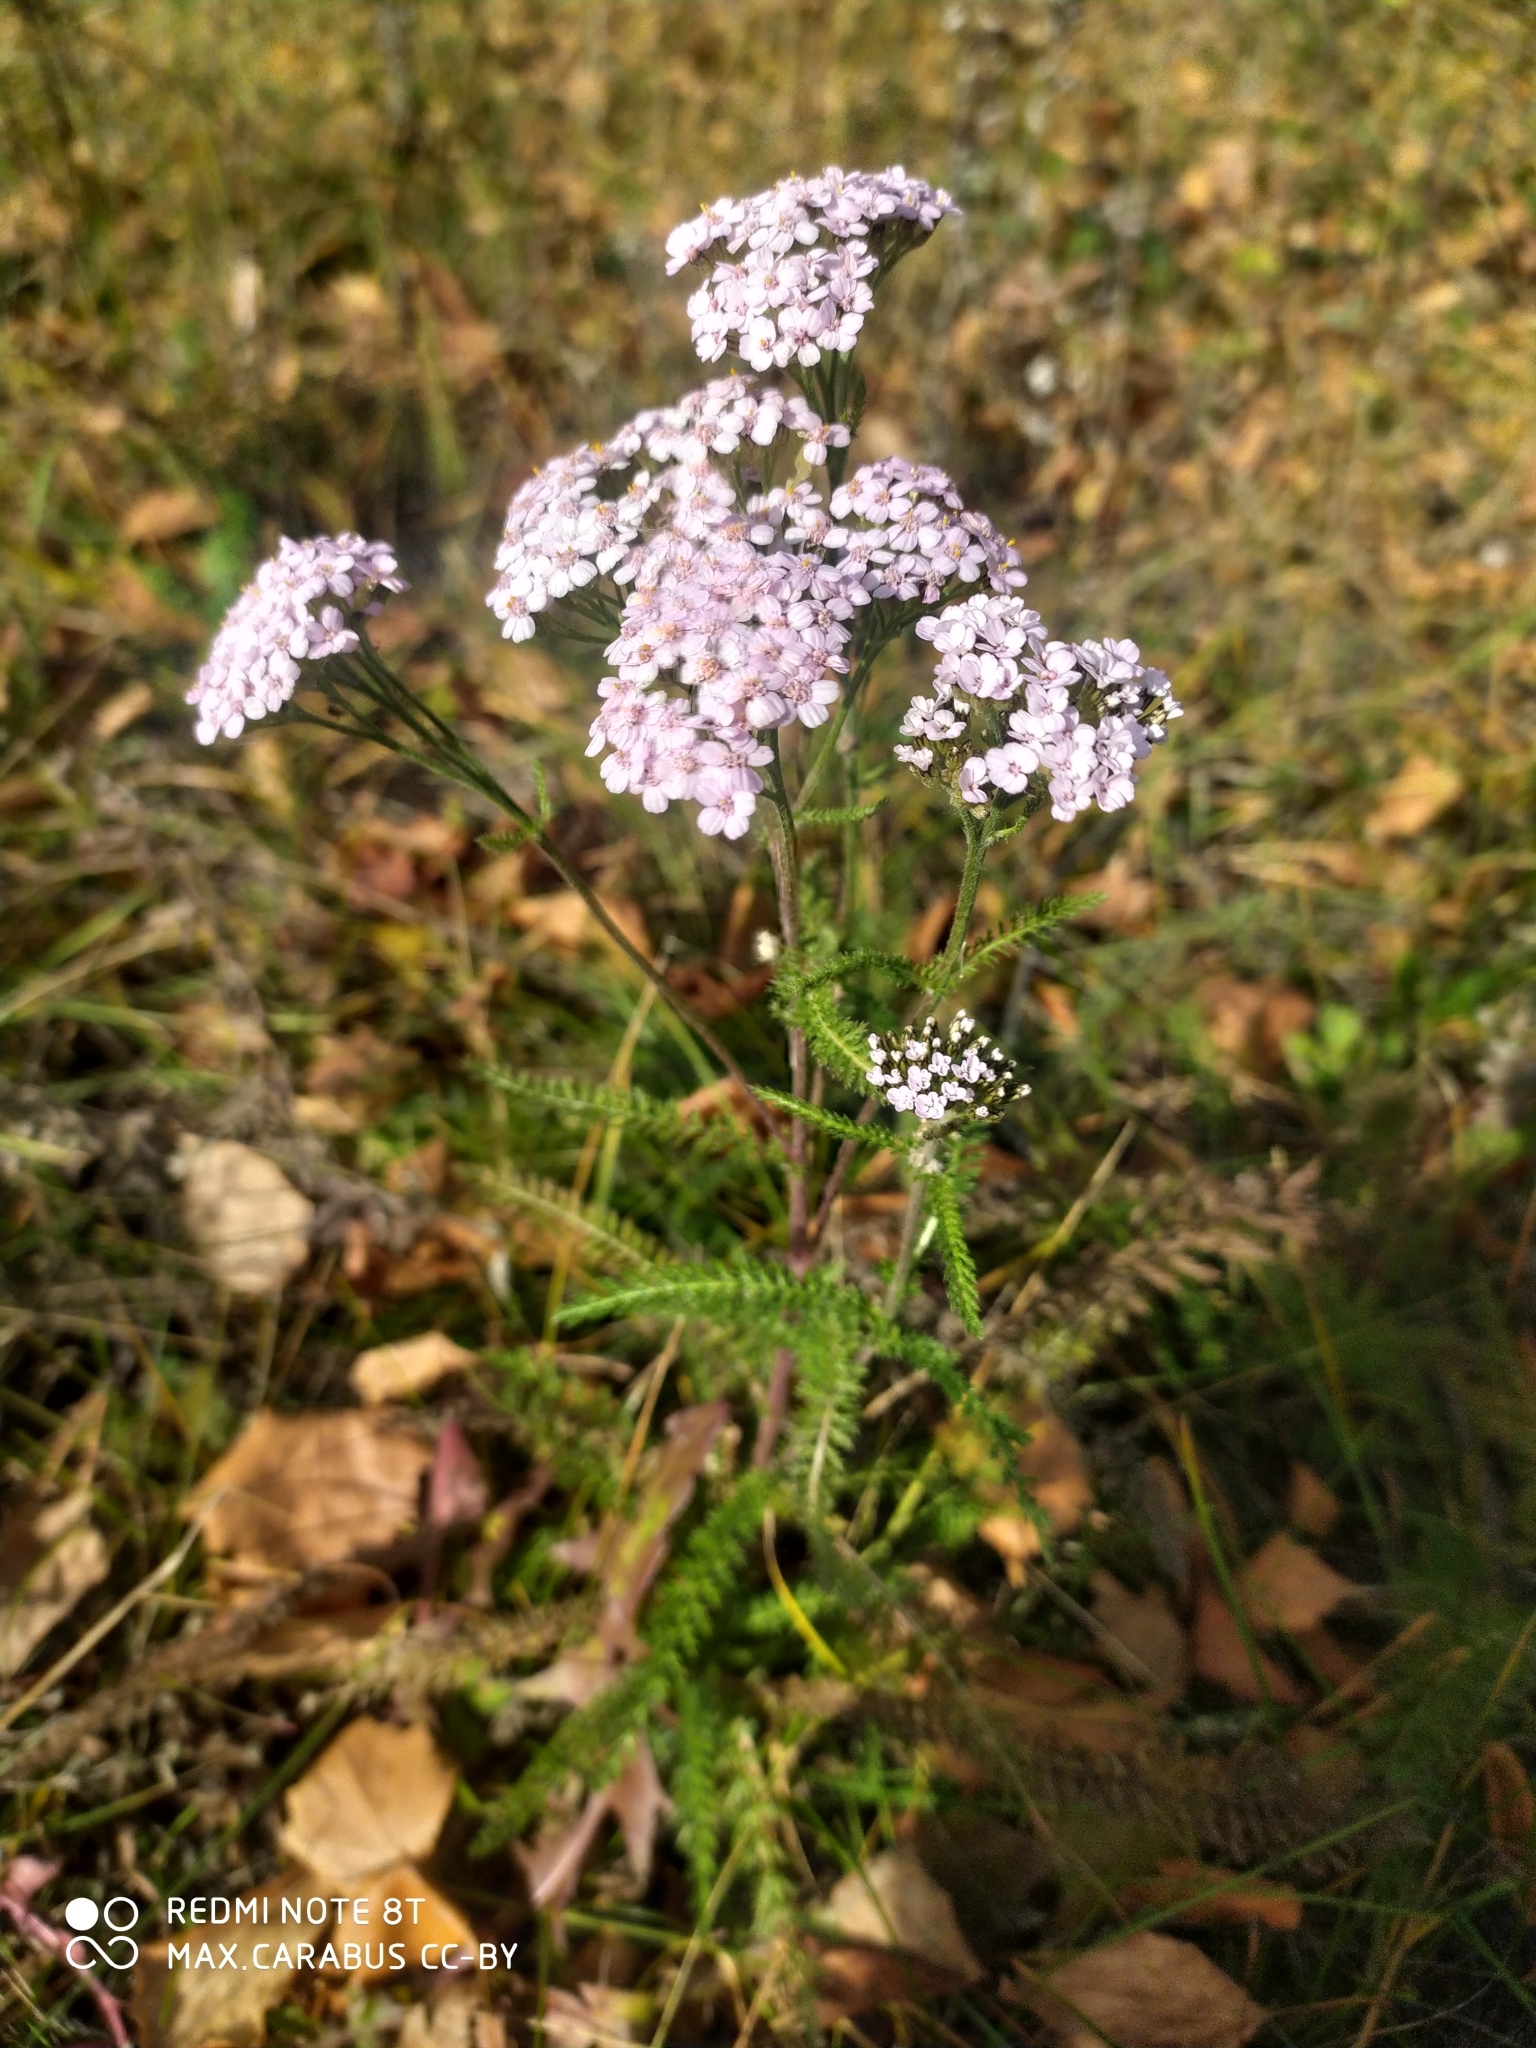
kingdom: Plantae
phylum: Tracheophyta
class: Magnoliopsida
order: Asterales
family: Asteraceae
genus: Achillea
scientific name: Achillea asiatica
